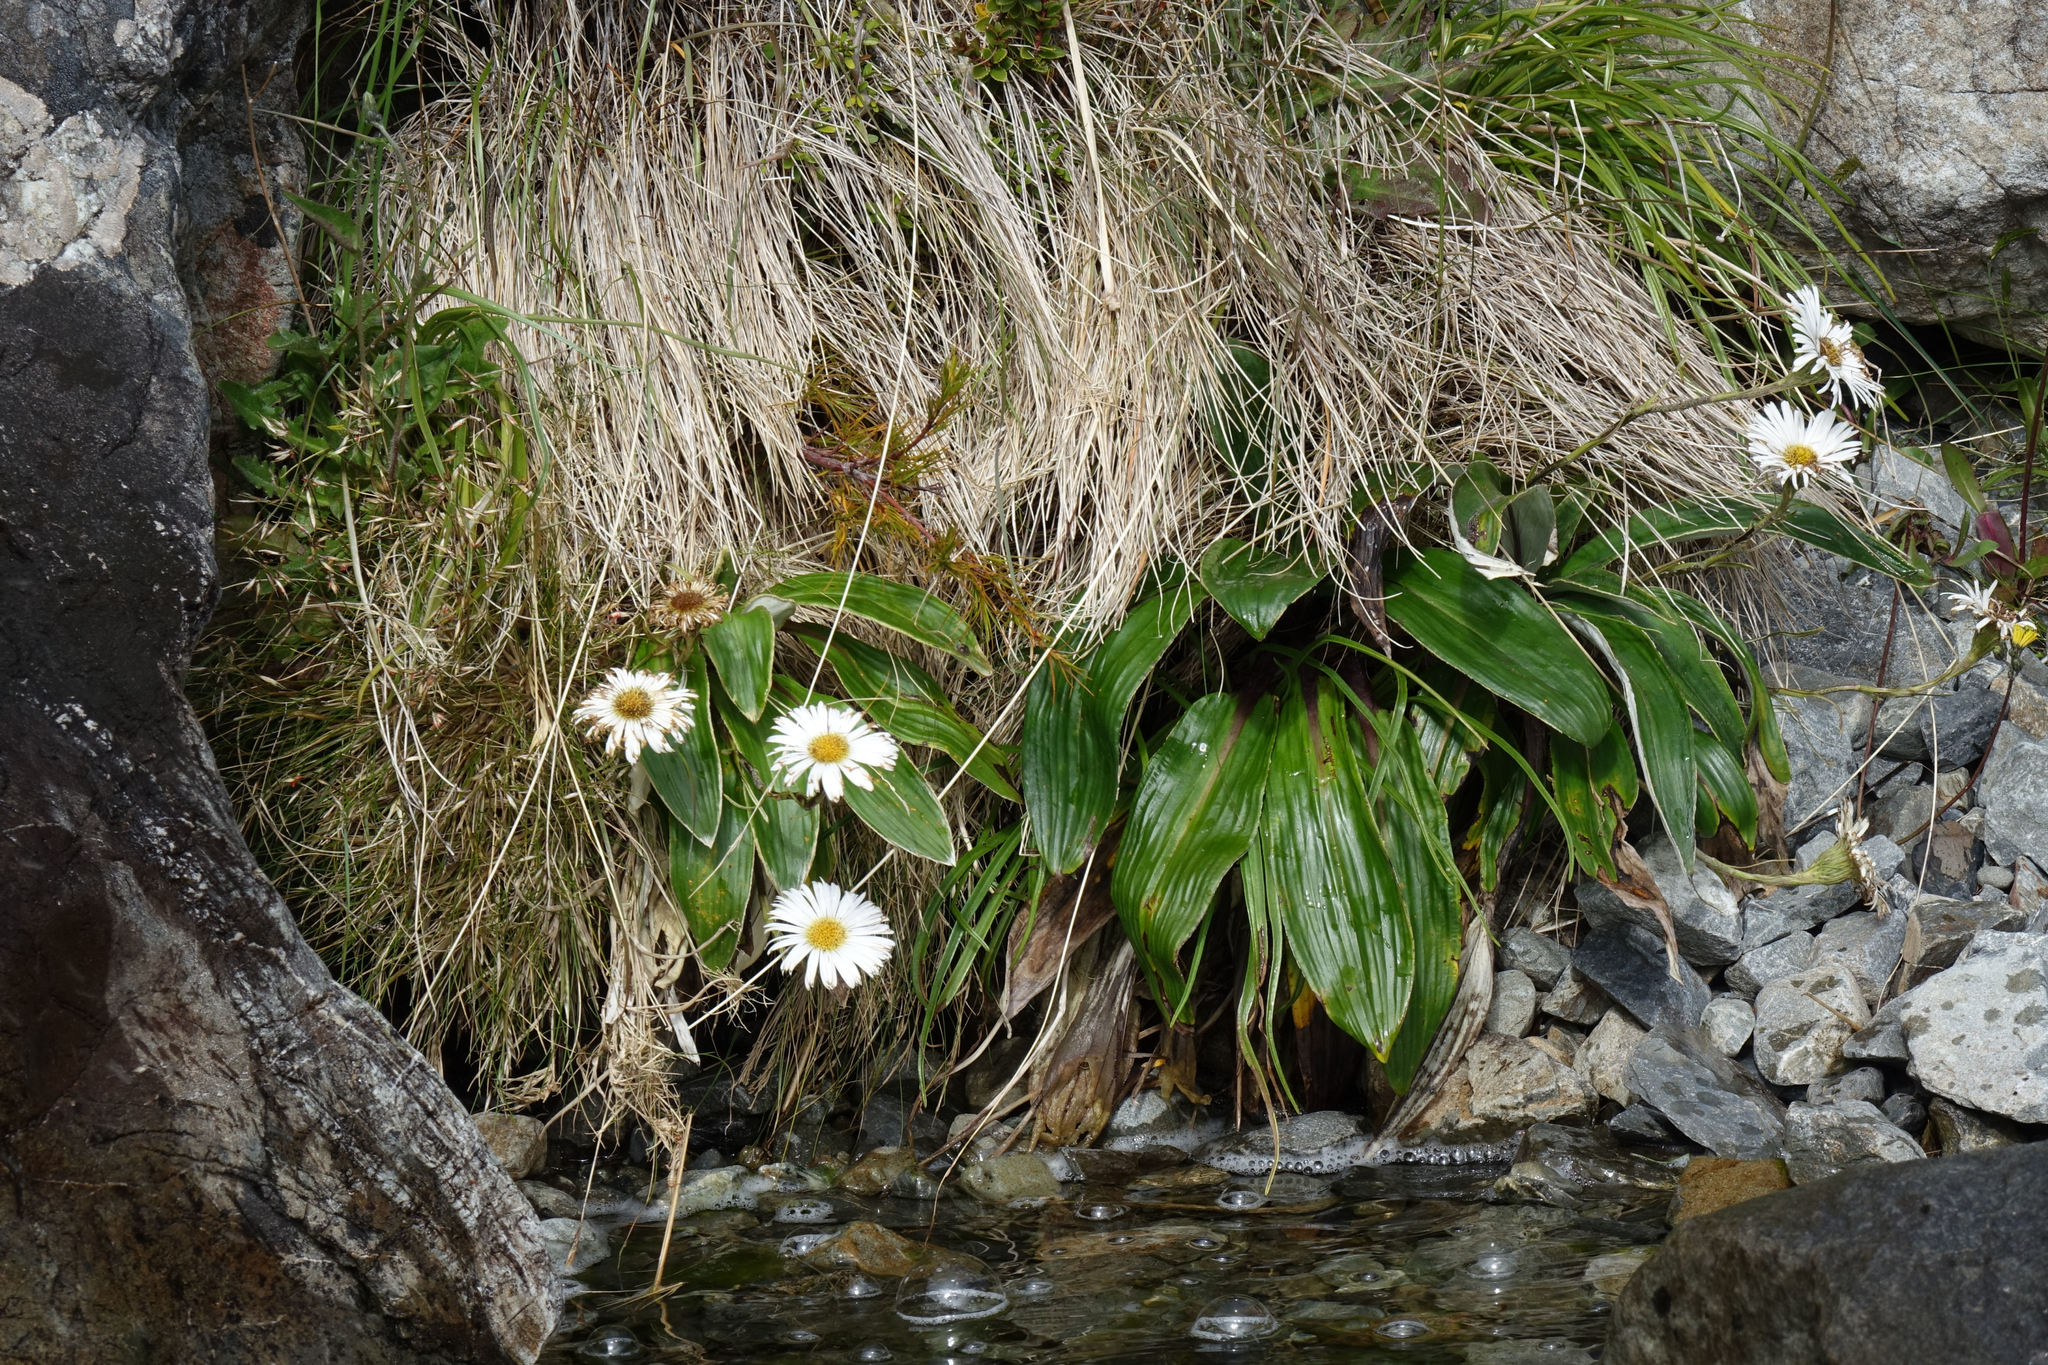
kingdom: Plantae
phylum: Tracheophyta
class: Magnoliopsida
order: Asterales
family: Asteraceae
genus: Celmisia
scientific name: Celmisia verbascifolia
